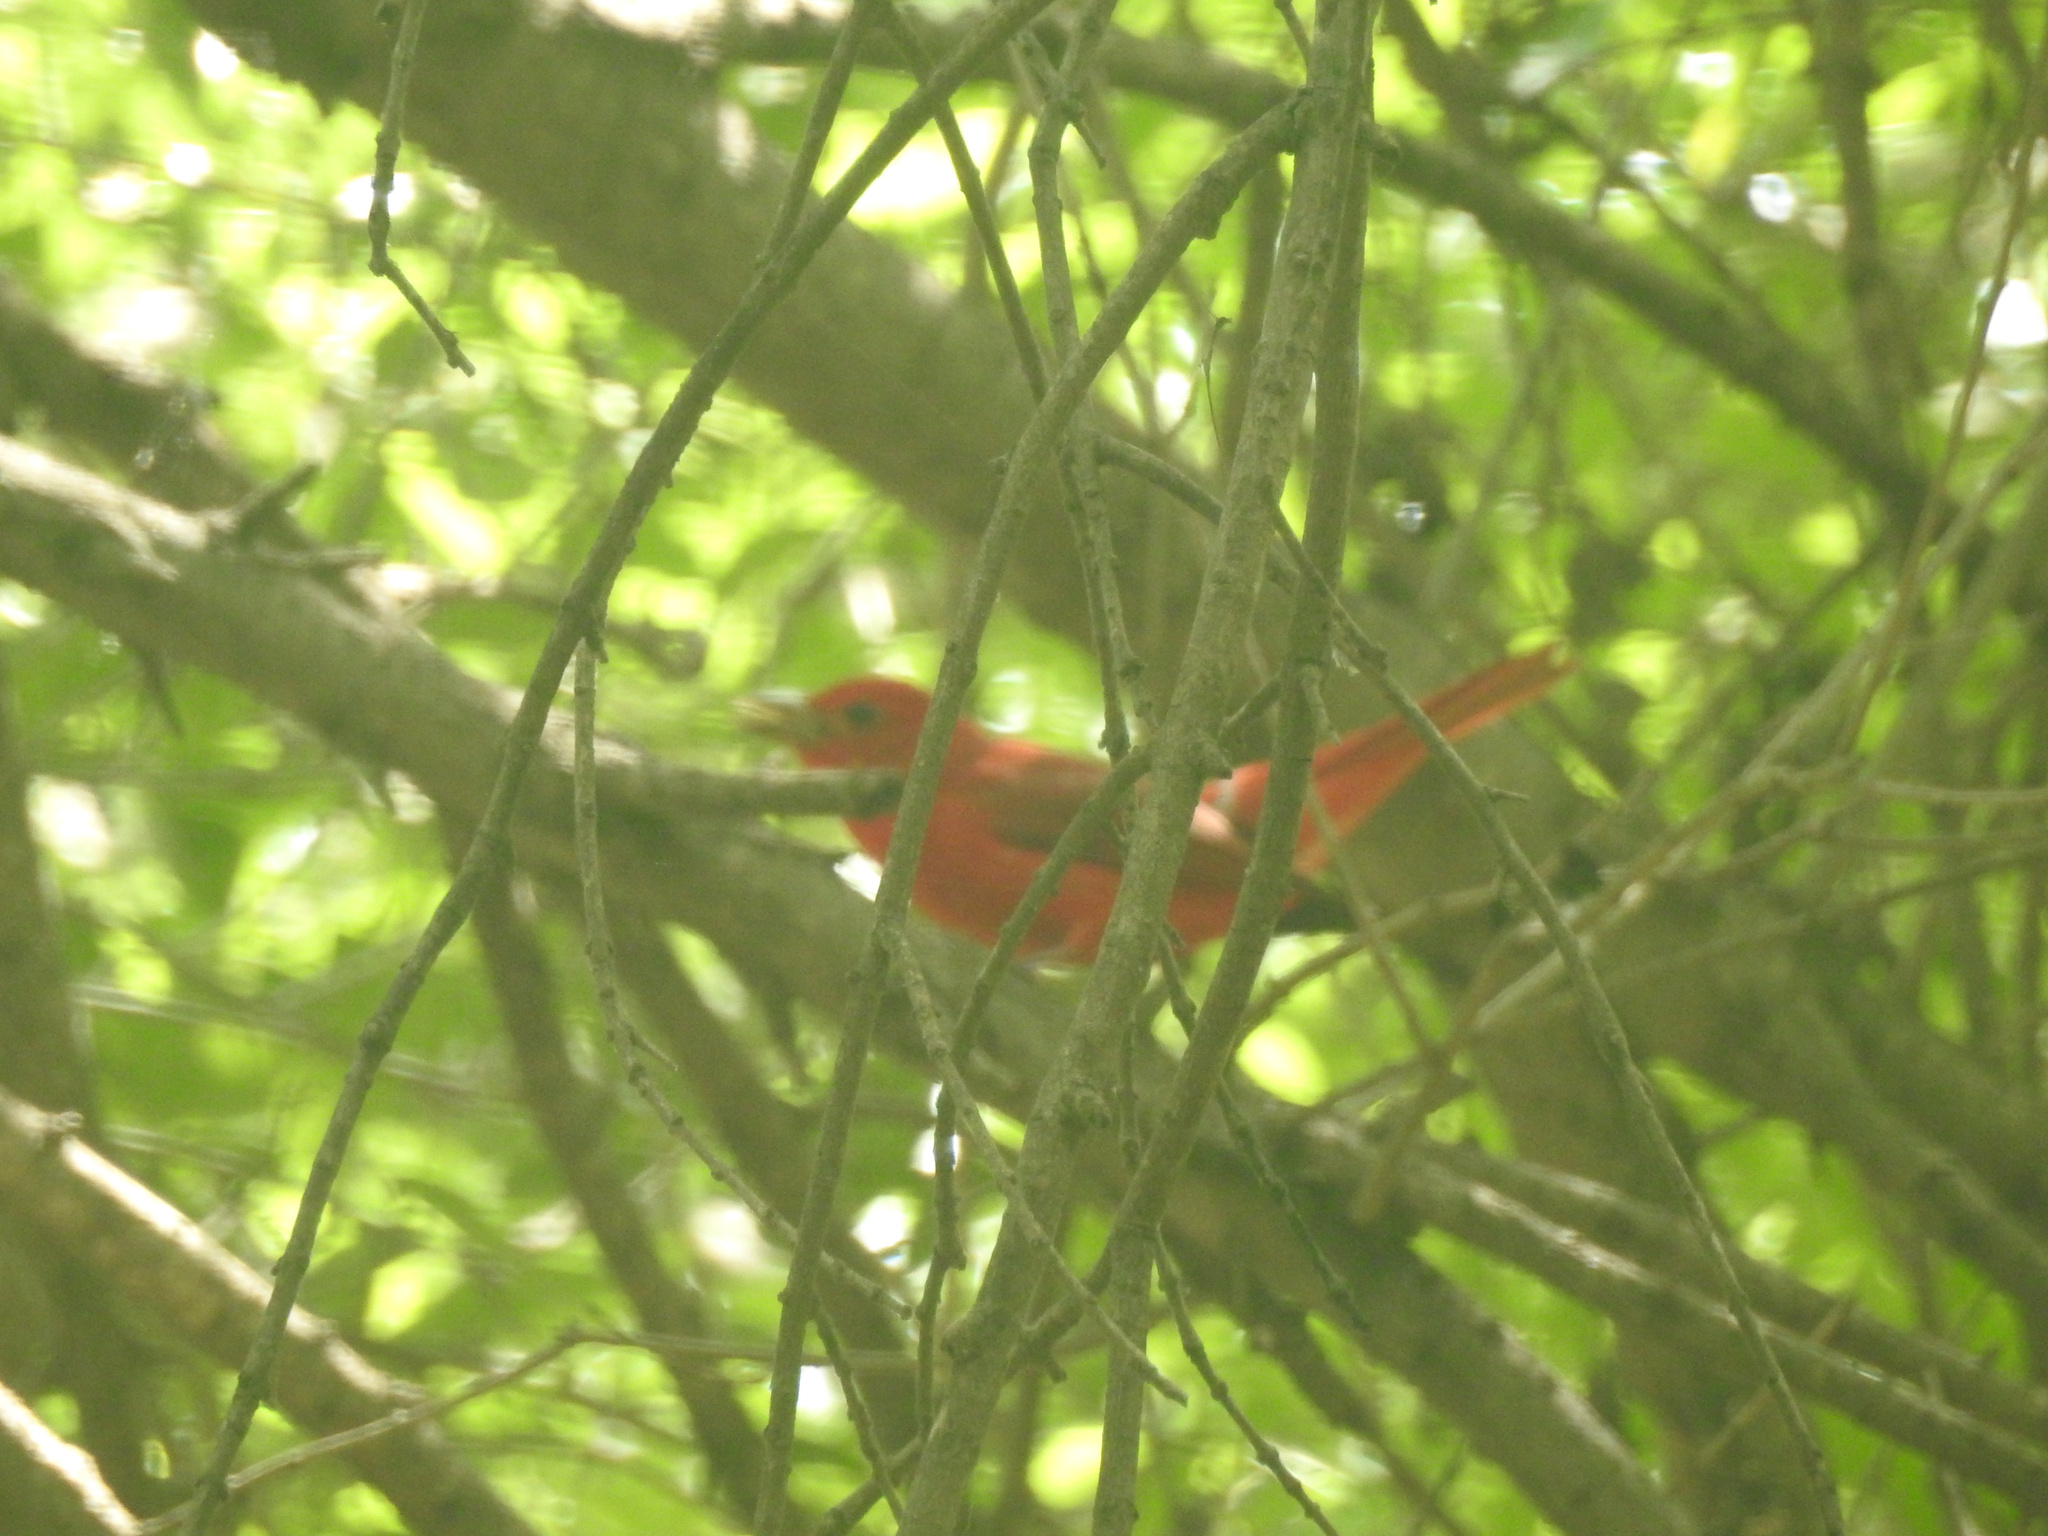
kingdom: Animalia
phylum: Chordata
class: Aves
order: Passeriformes
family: Cardinalidae
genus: Piranga
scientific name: Piranga rubra
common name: Summer tanager
